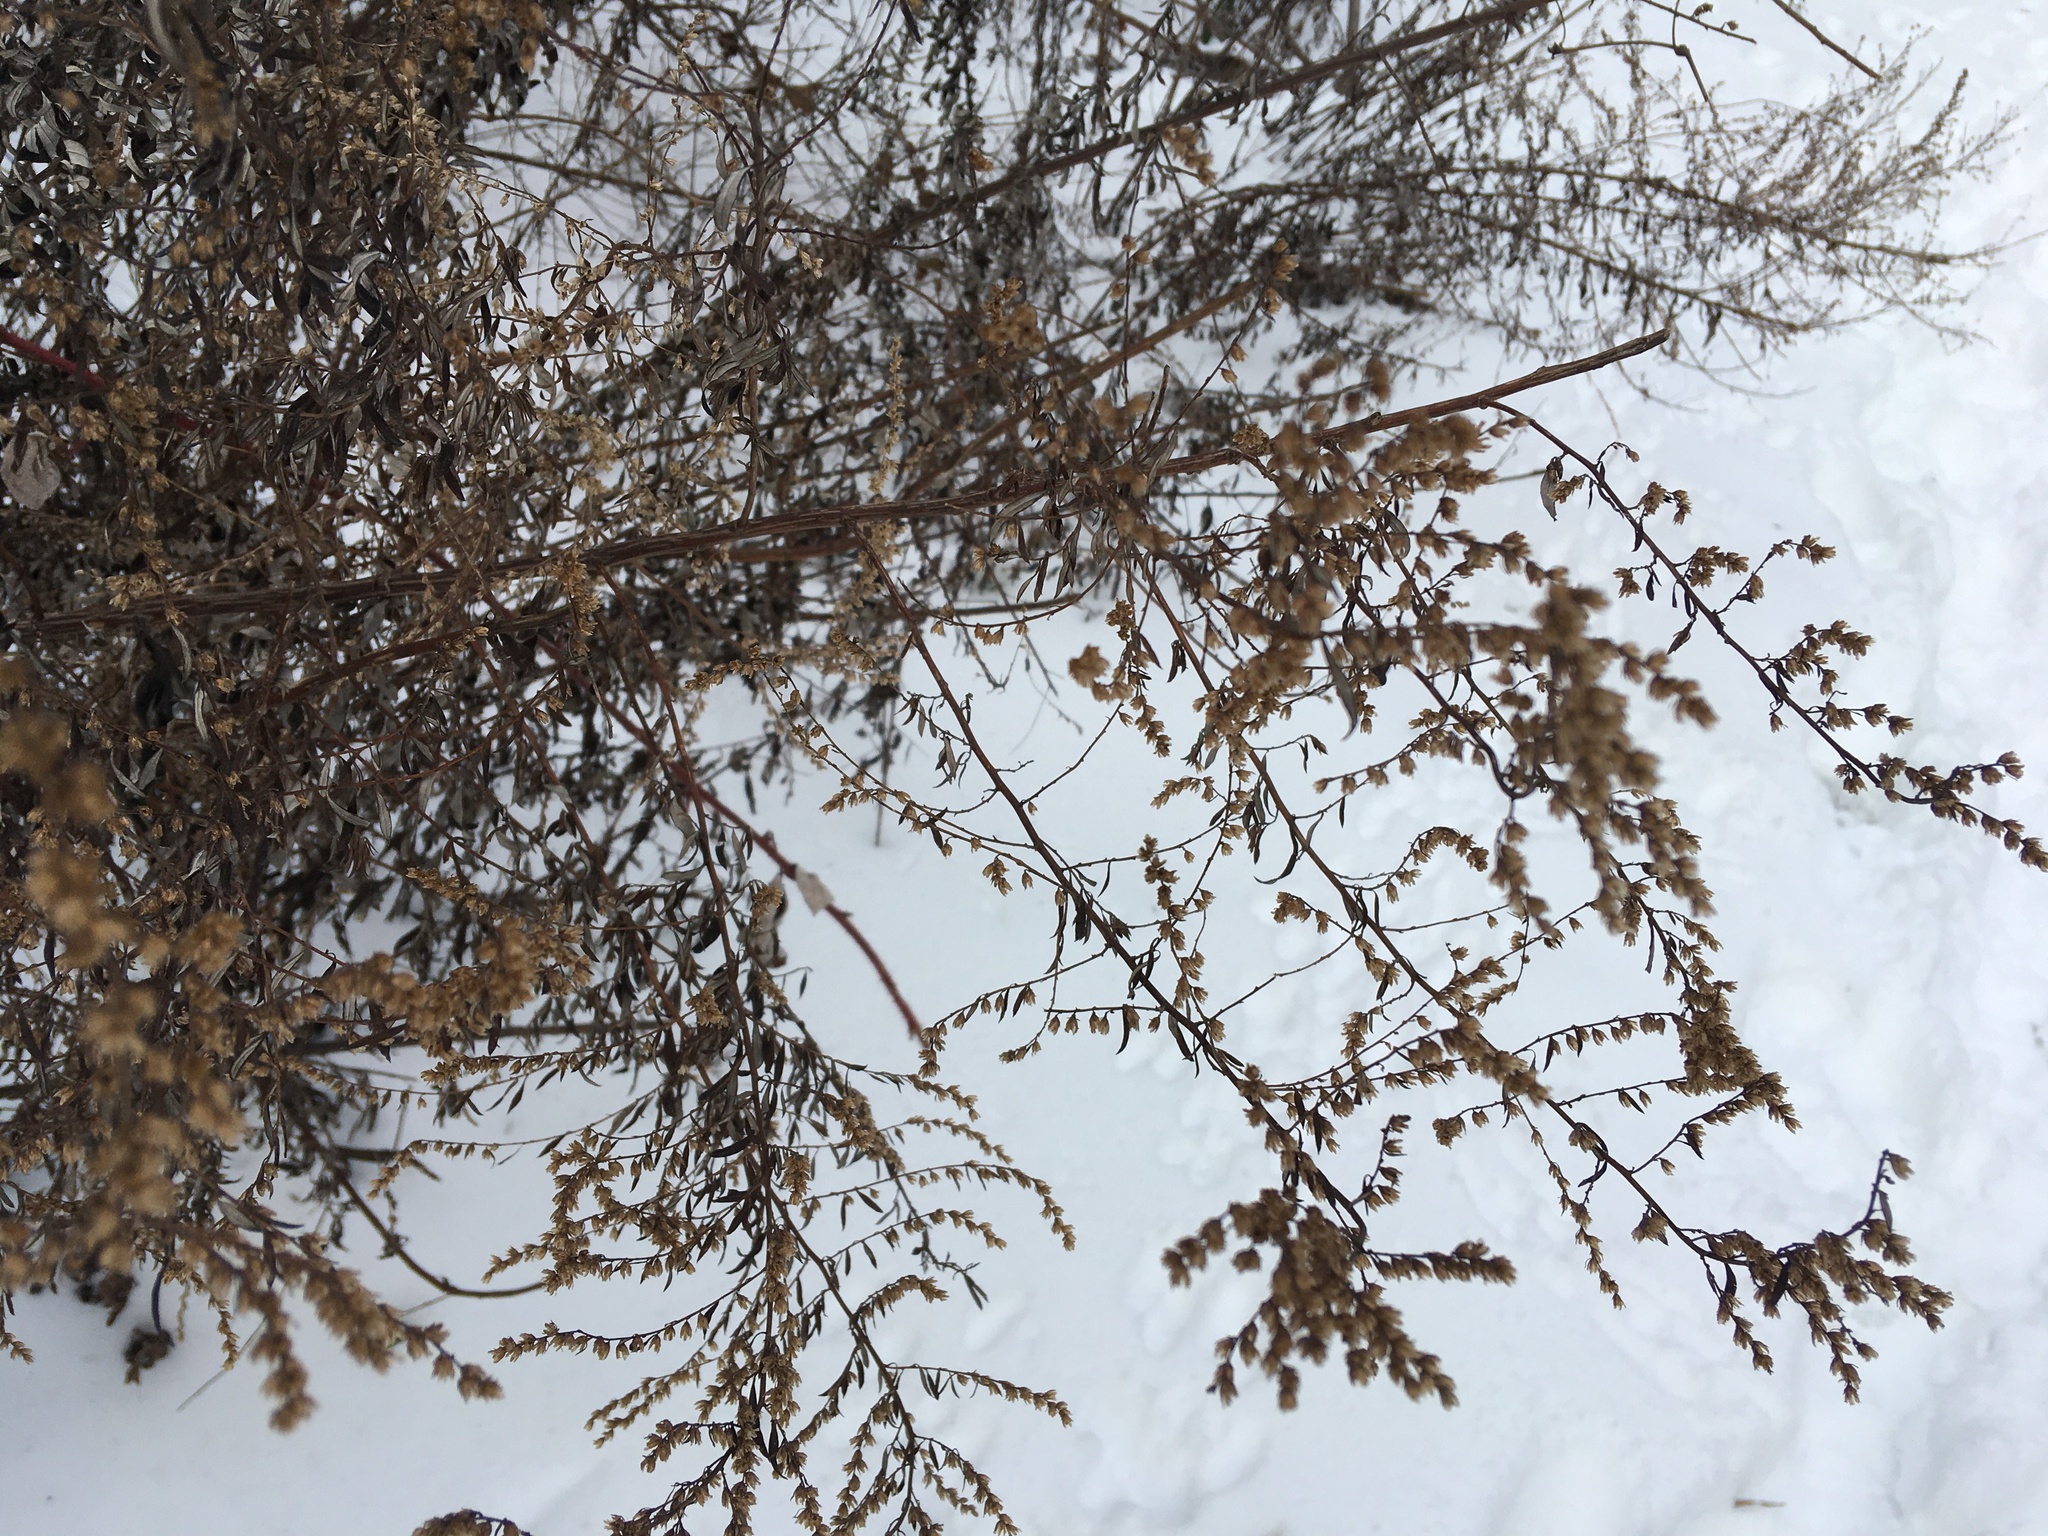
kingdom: Plantae
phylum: Tracheophyta
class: Magnoliopsida
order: Asterales
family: Asteraceae
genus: Artemisia
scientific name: Artemisia vulgaris
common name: Mugwort
